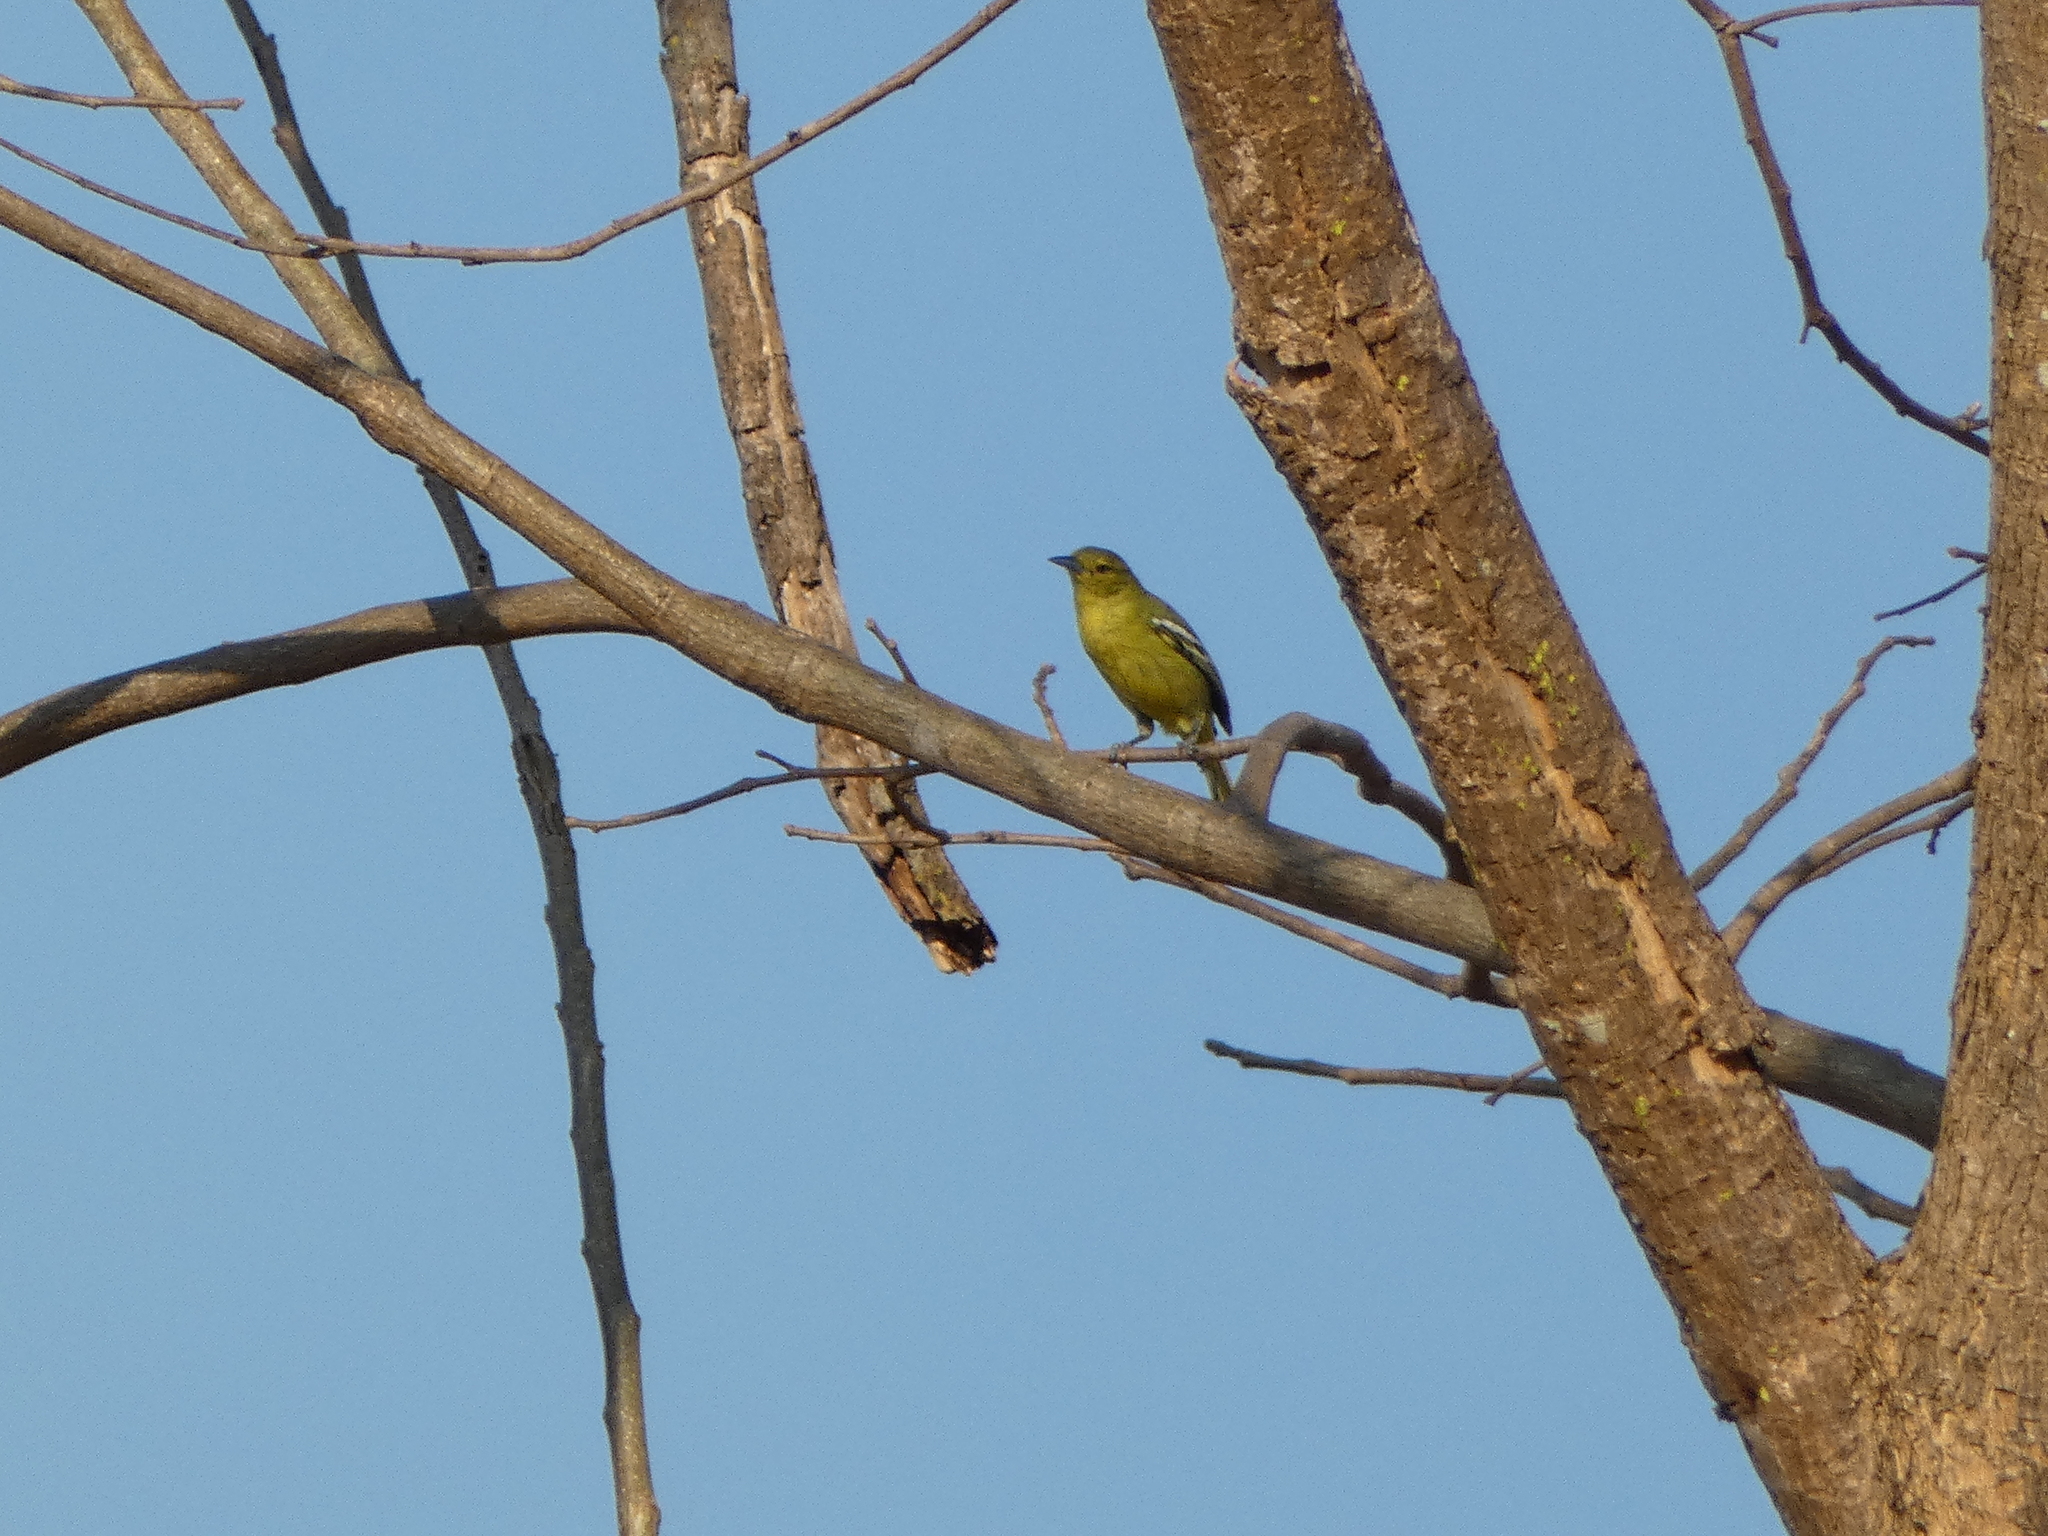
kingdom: Animalia
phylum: Chordata
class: Aves
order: Passeriformes
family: Aegithinidae
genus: Aegithina
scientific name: Aegithina tiphia
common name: Common iora
